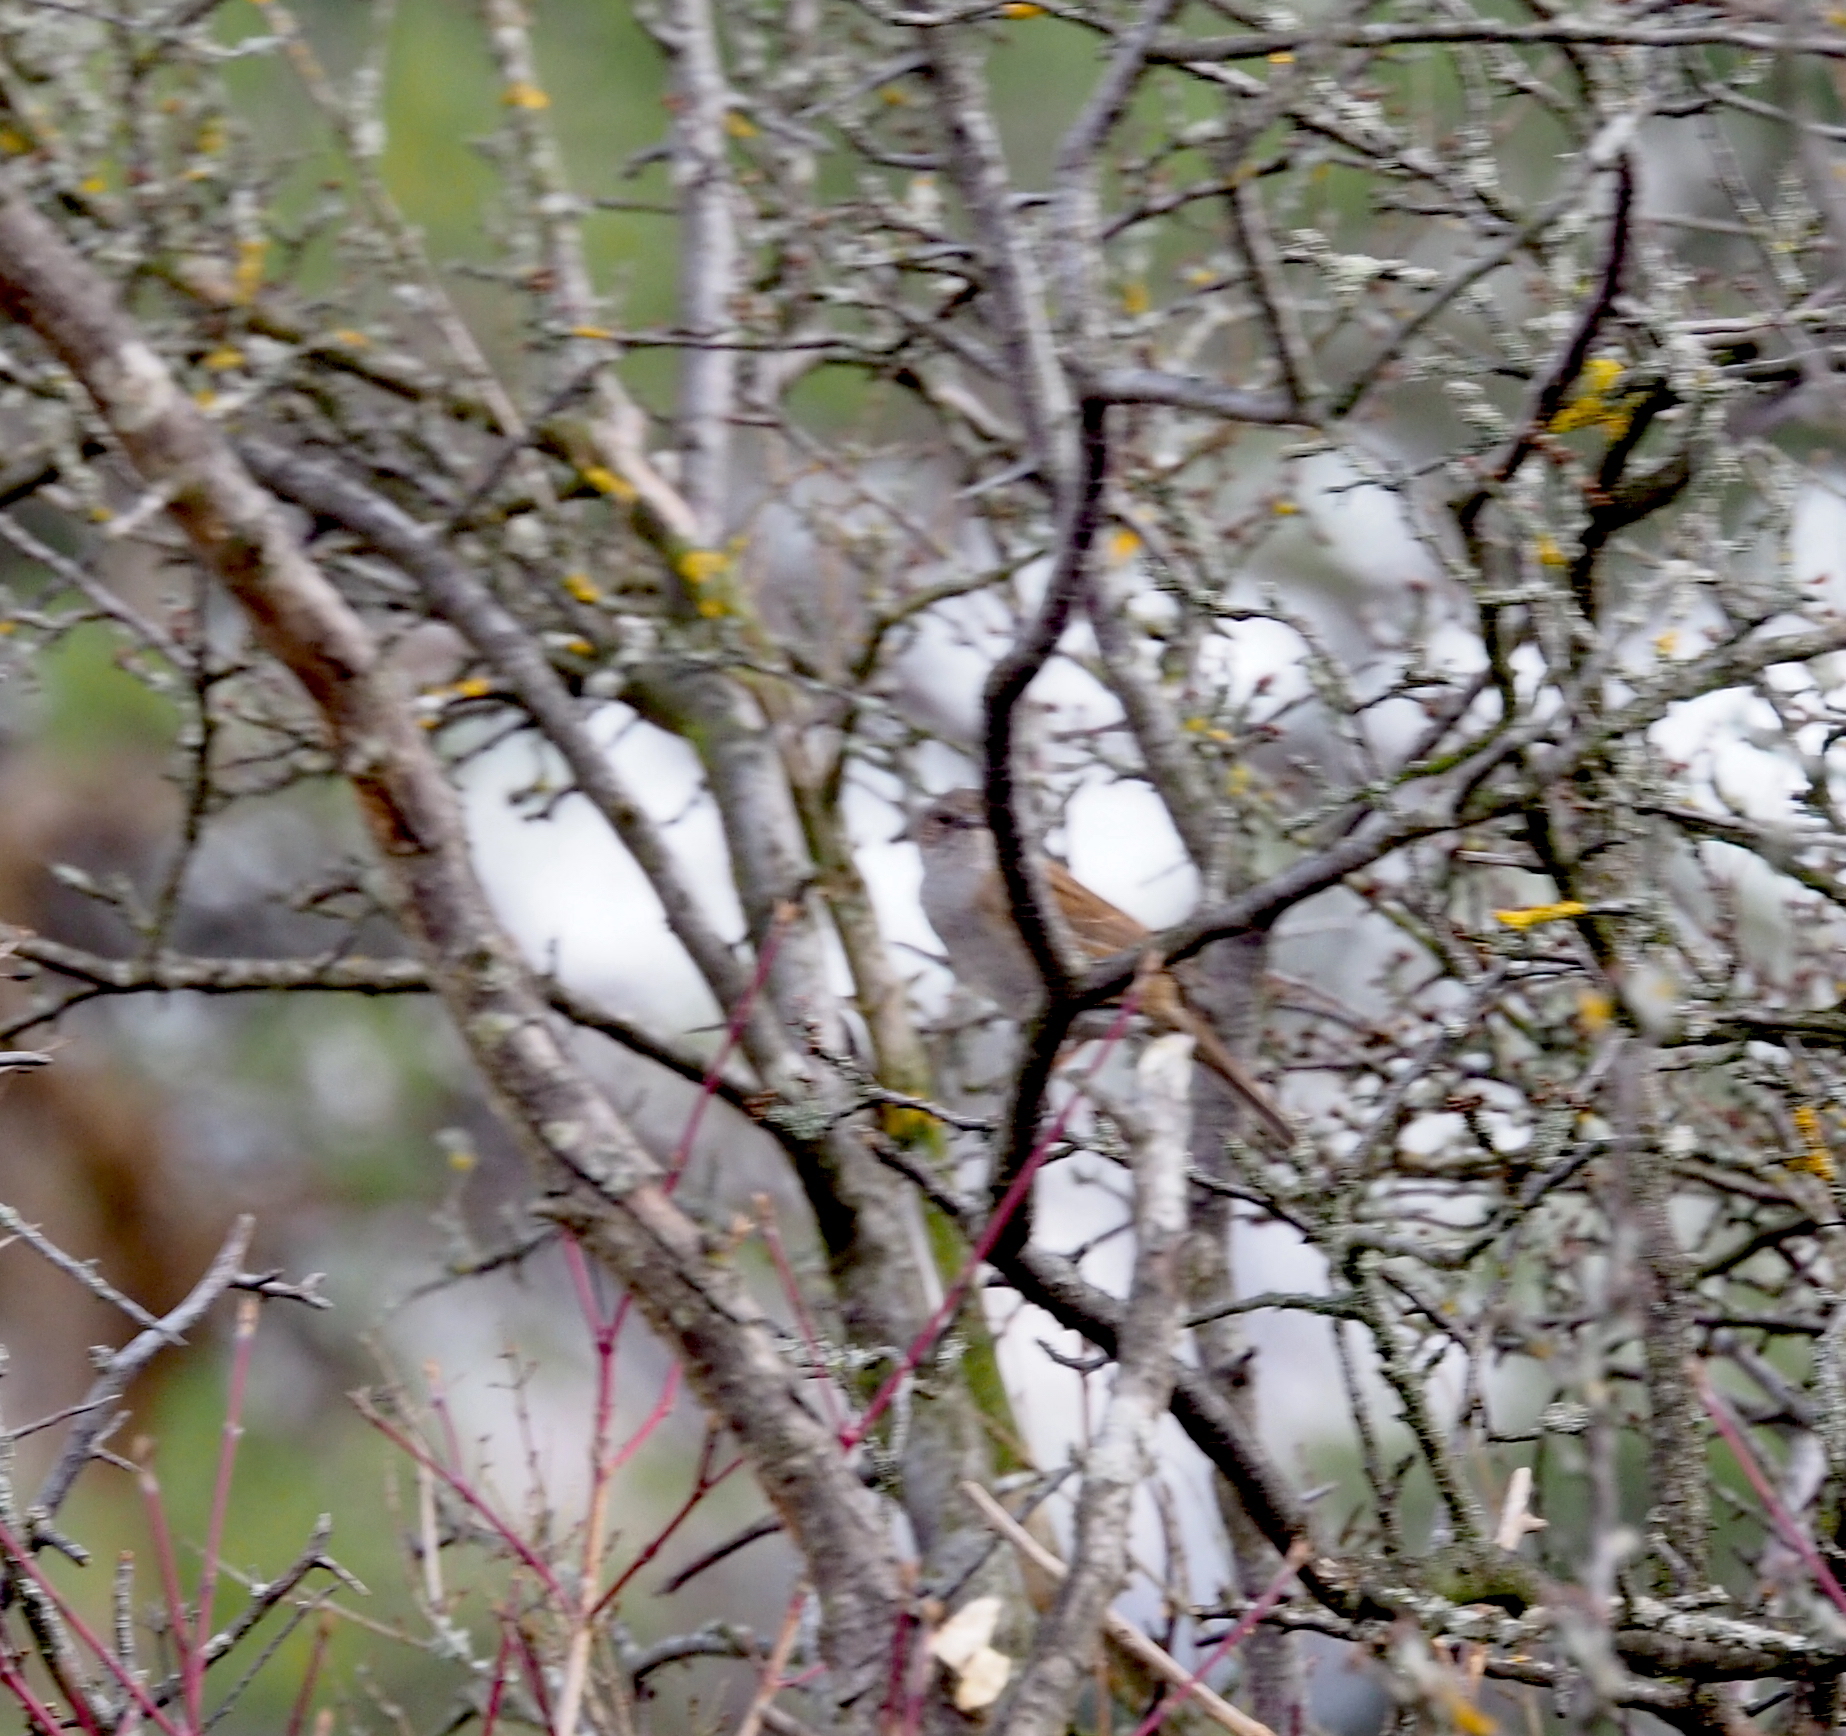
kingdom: Animalia
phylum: Chordata
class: Aves
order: Passeriformes
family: Prunellidae
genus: Prunella
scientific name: Prunella modularis
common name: Dunnock
